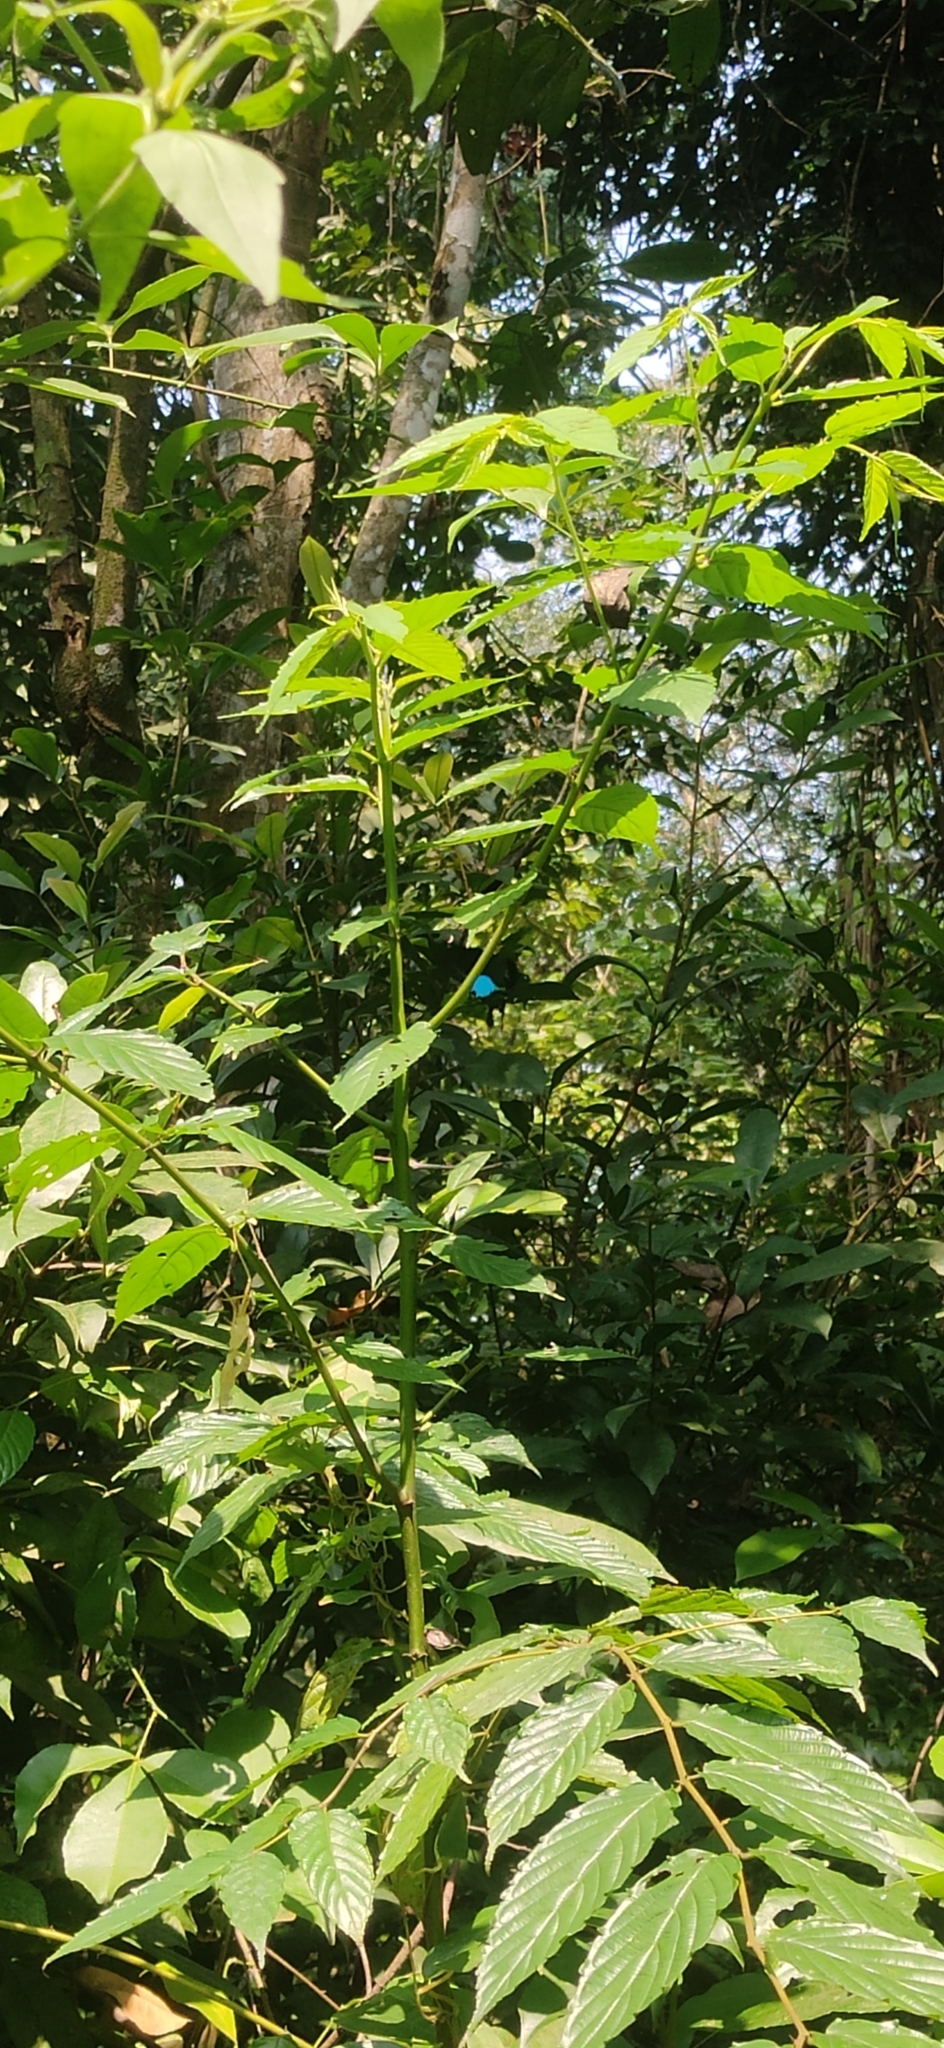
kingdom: Animalia
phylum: Arthropoda
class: Insecta
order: Lepidoptera
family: Papilionidae
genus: Papilio
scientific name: Papilio paris
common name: Paris peacock
